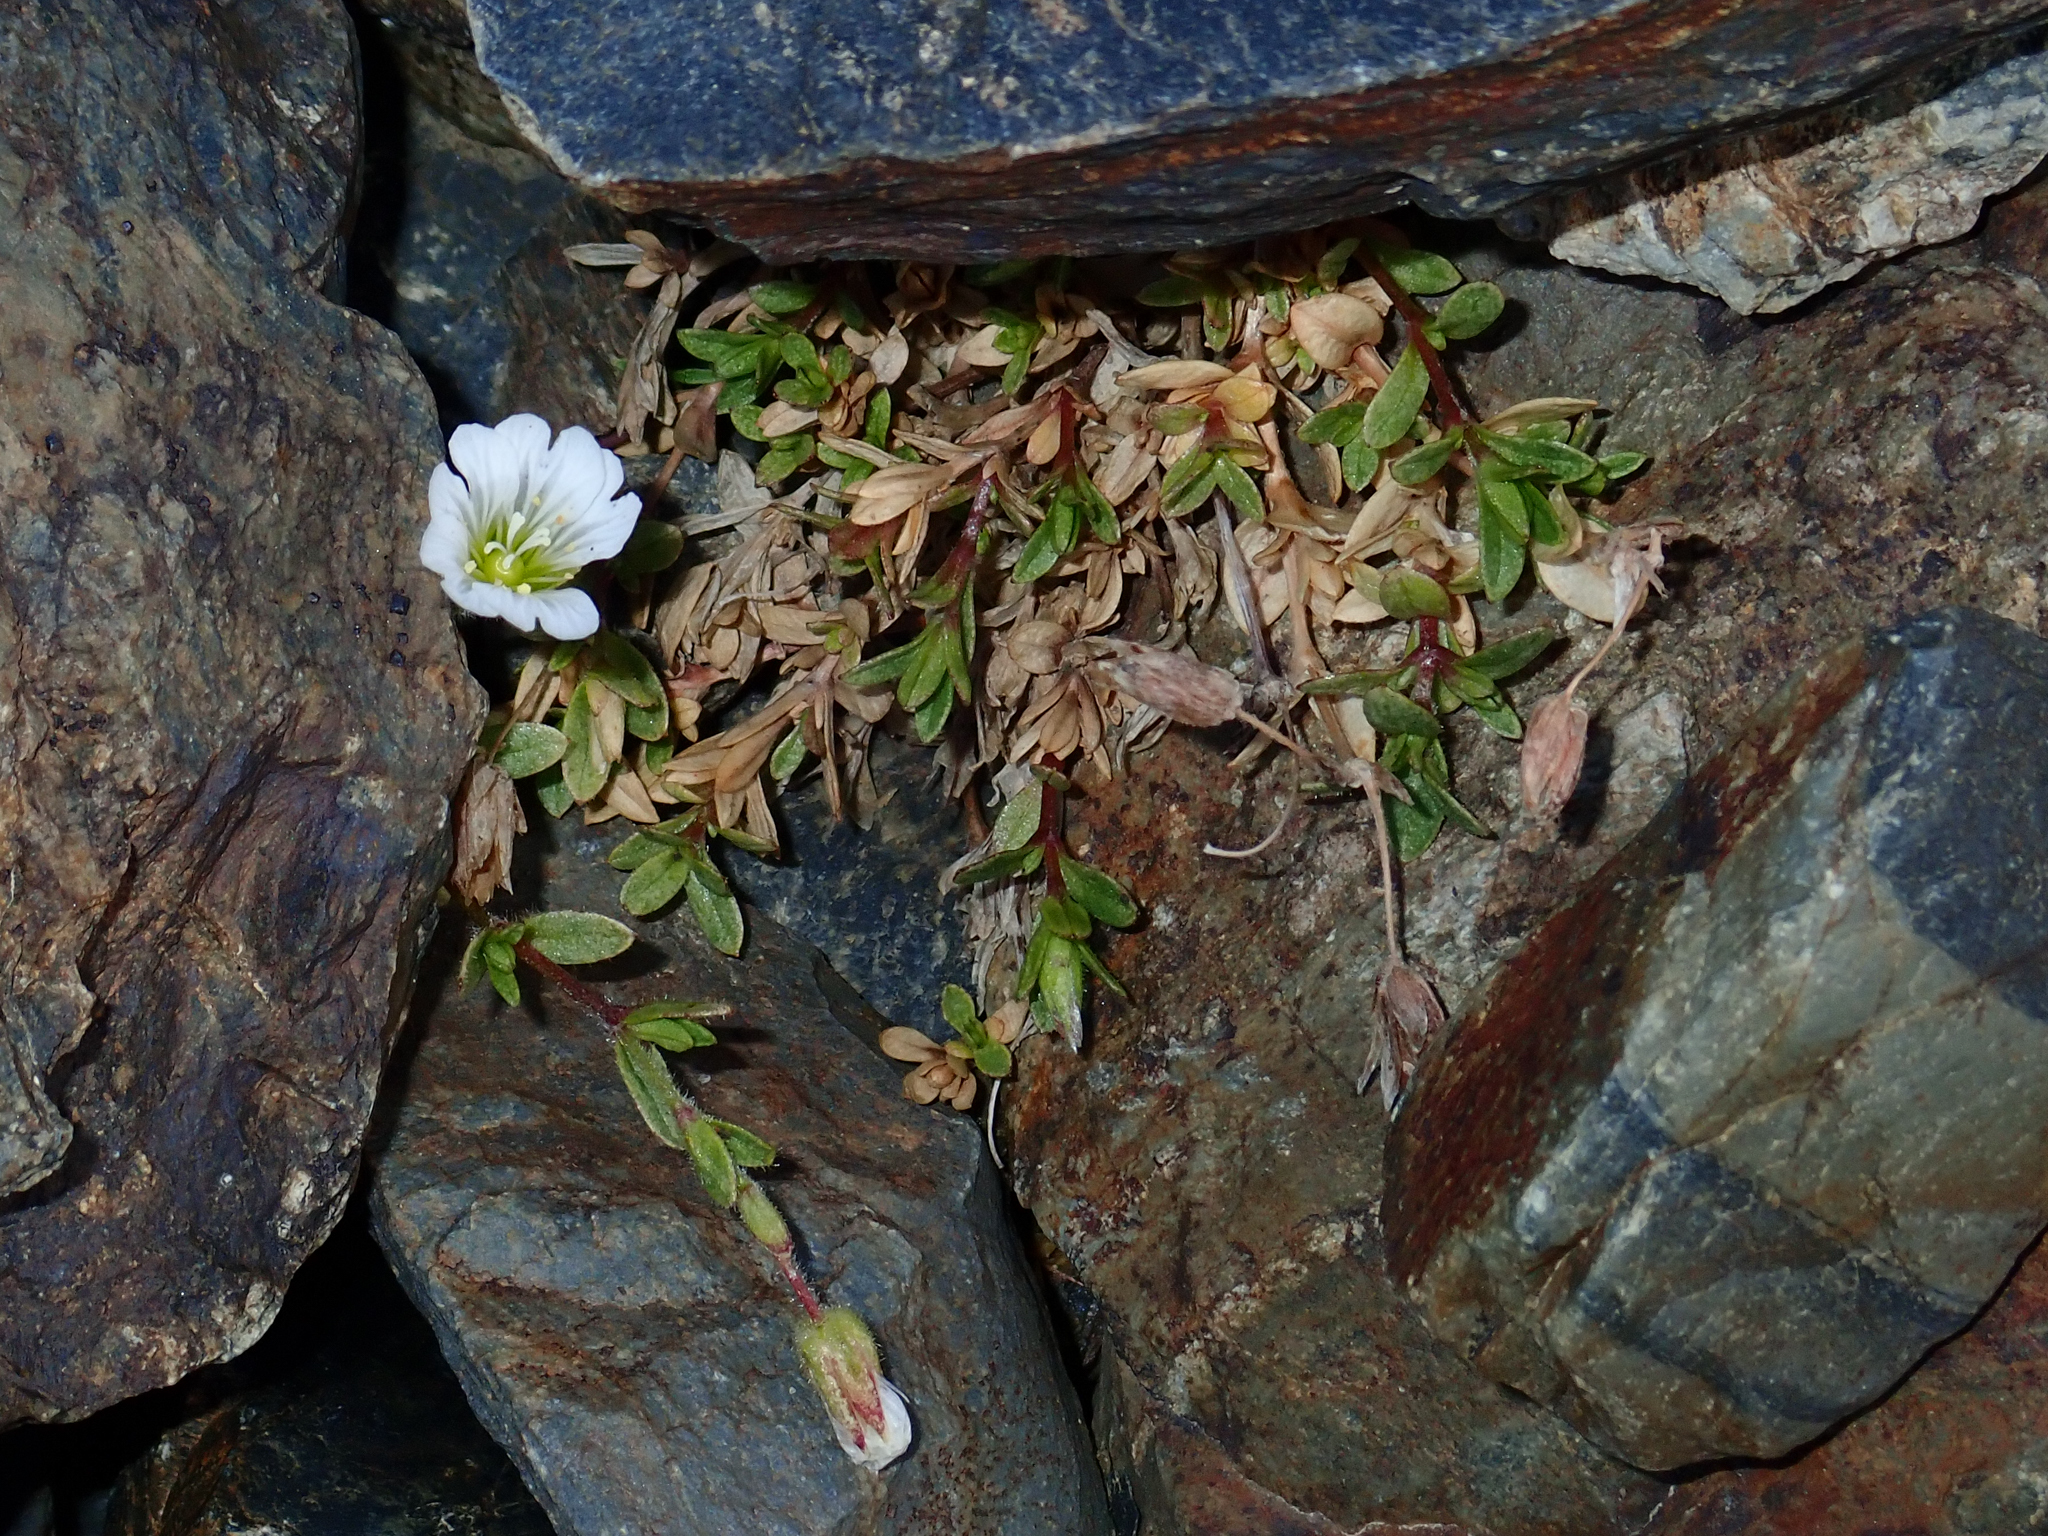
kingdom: Plantae
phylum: Tracheophyta
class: Magnoliopsida
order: Caryophyllales
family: Caryophyllaceae
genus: Cerastium
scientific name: Cerastium arvense
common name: Field mouse-ear
